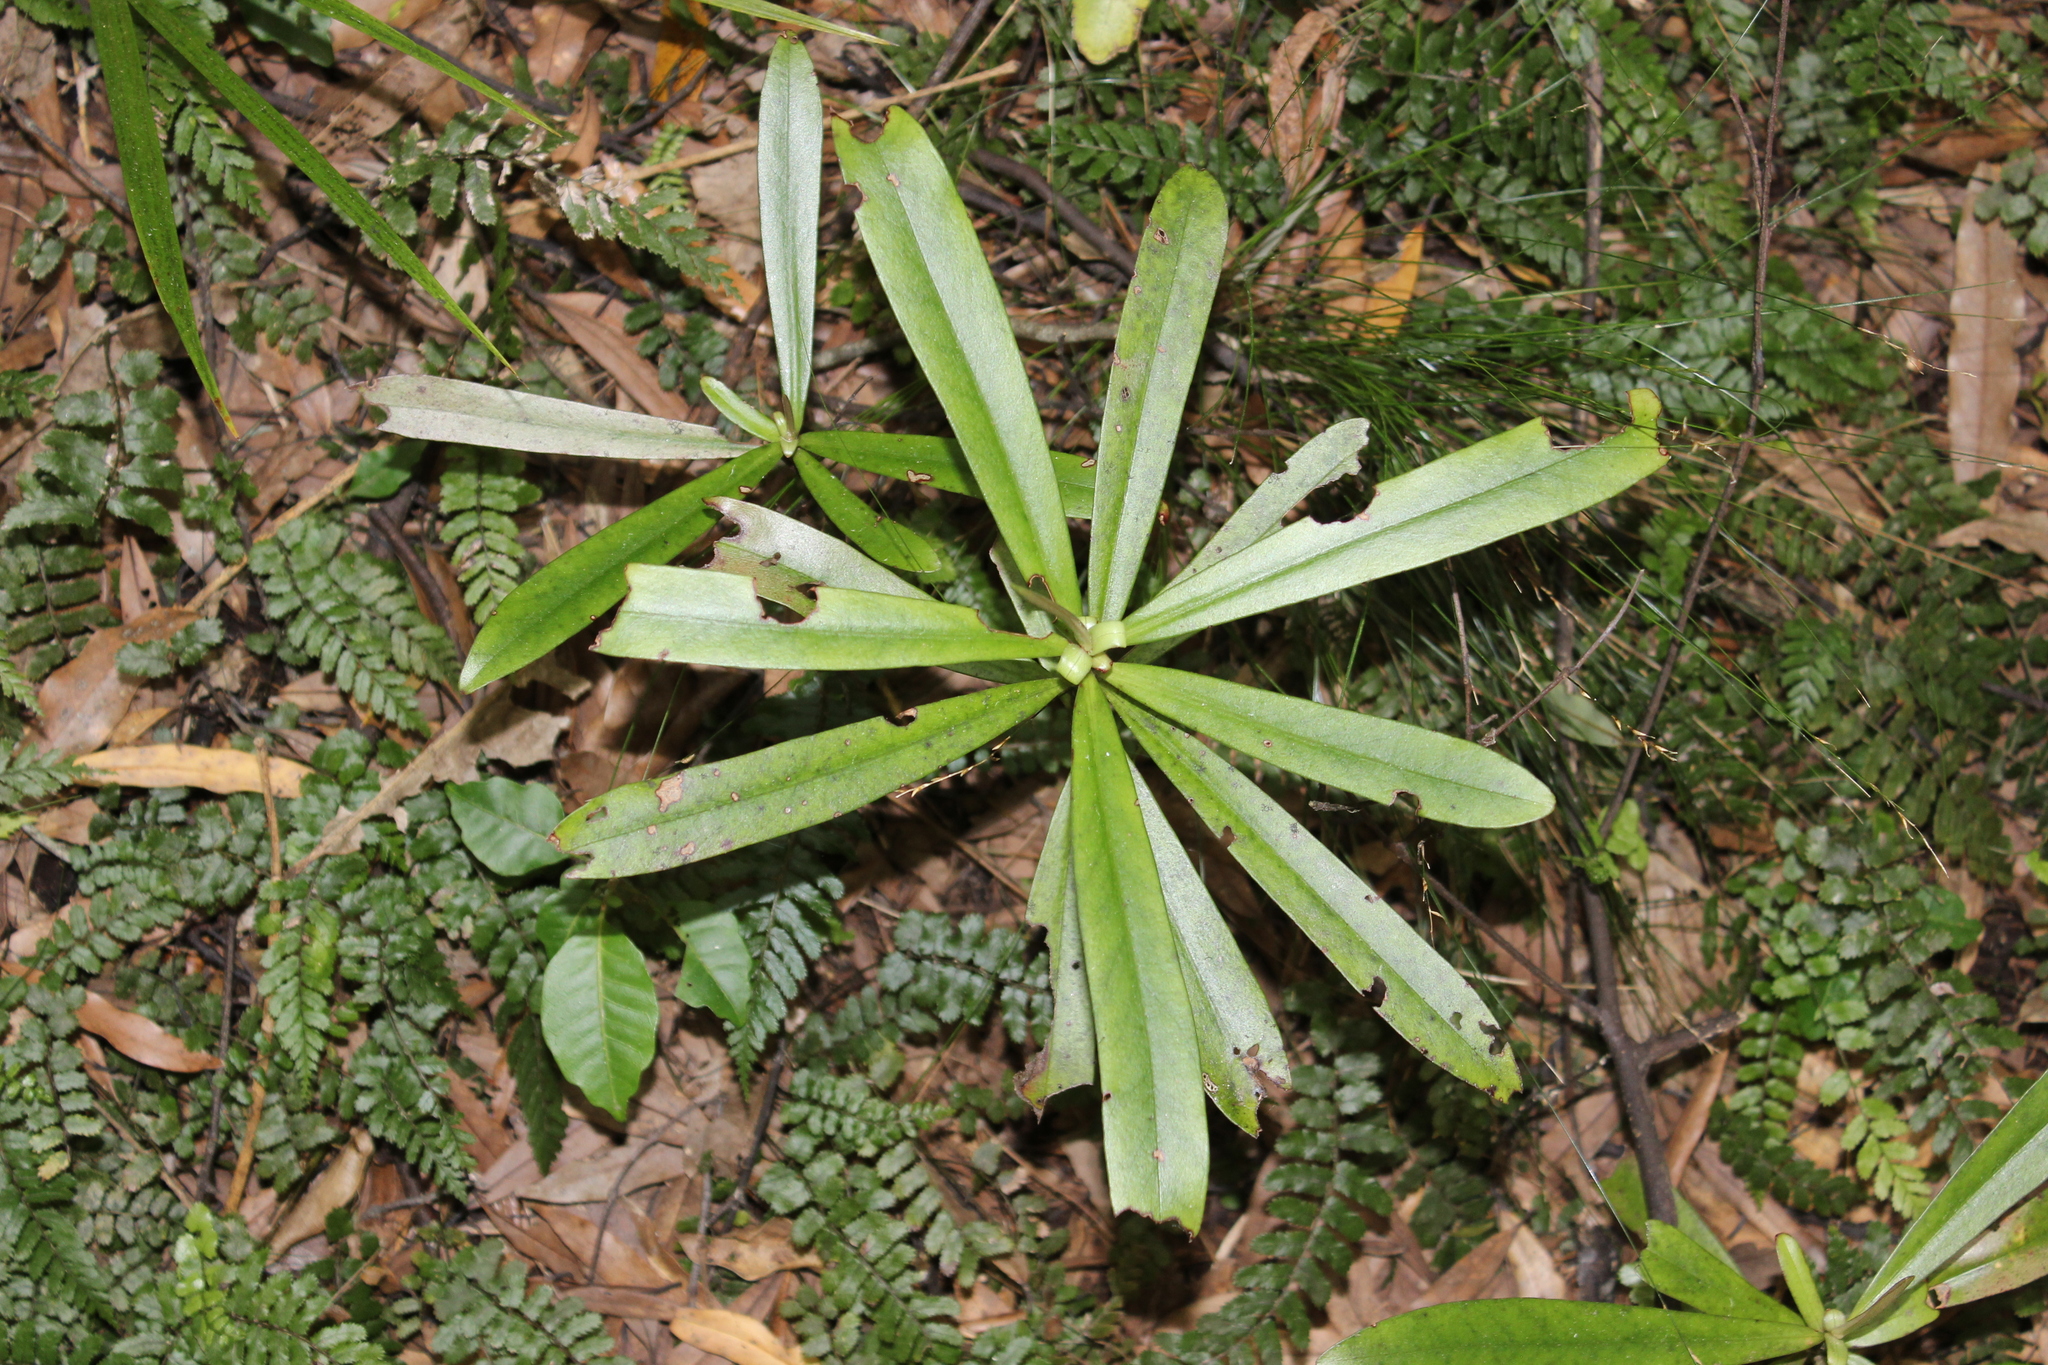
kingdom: Plantae
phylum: Tracheophyta
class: Magnoliopsida
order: Ericales
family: Primulaceae
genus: Myrsine
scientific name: Myrsine salicina
